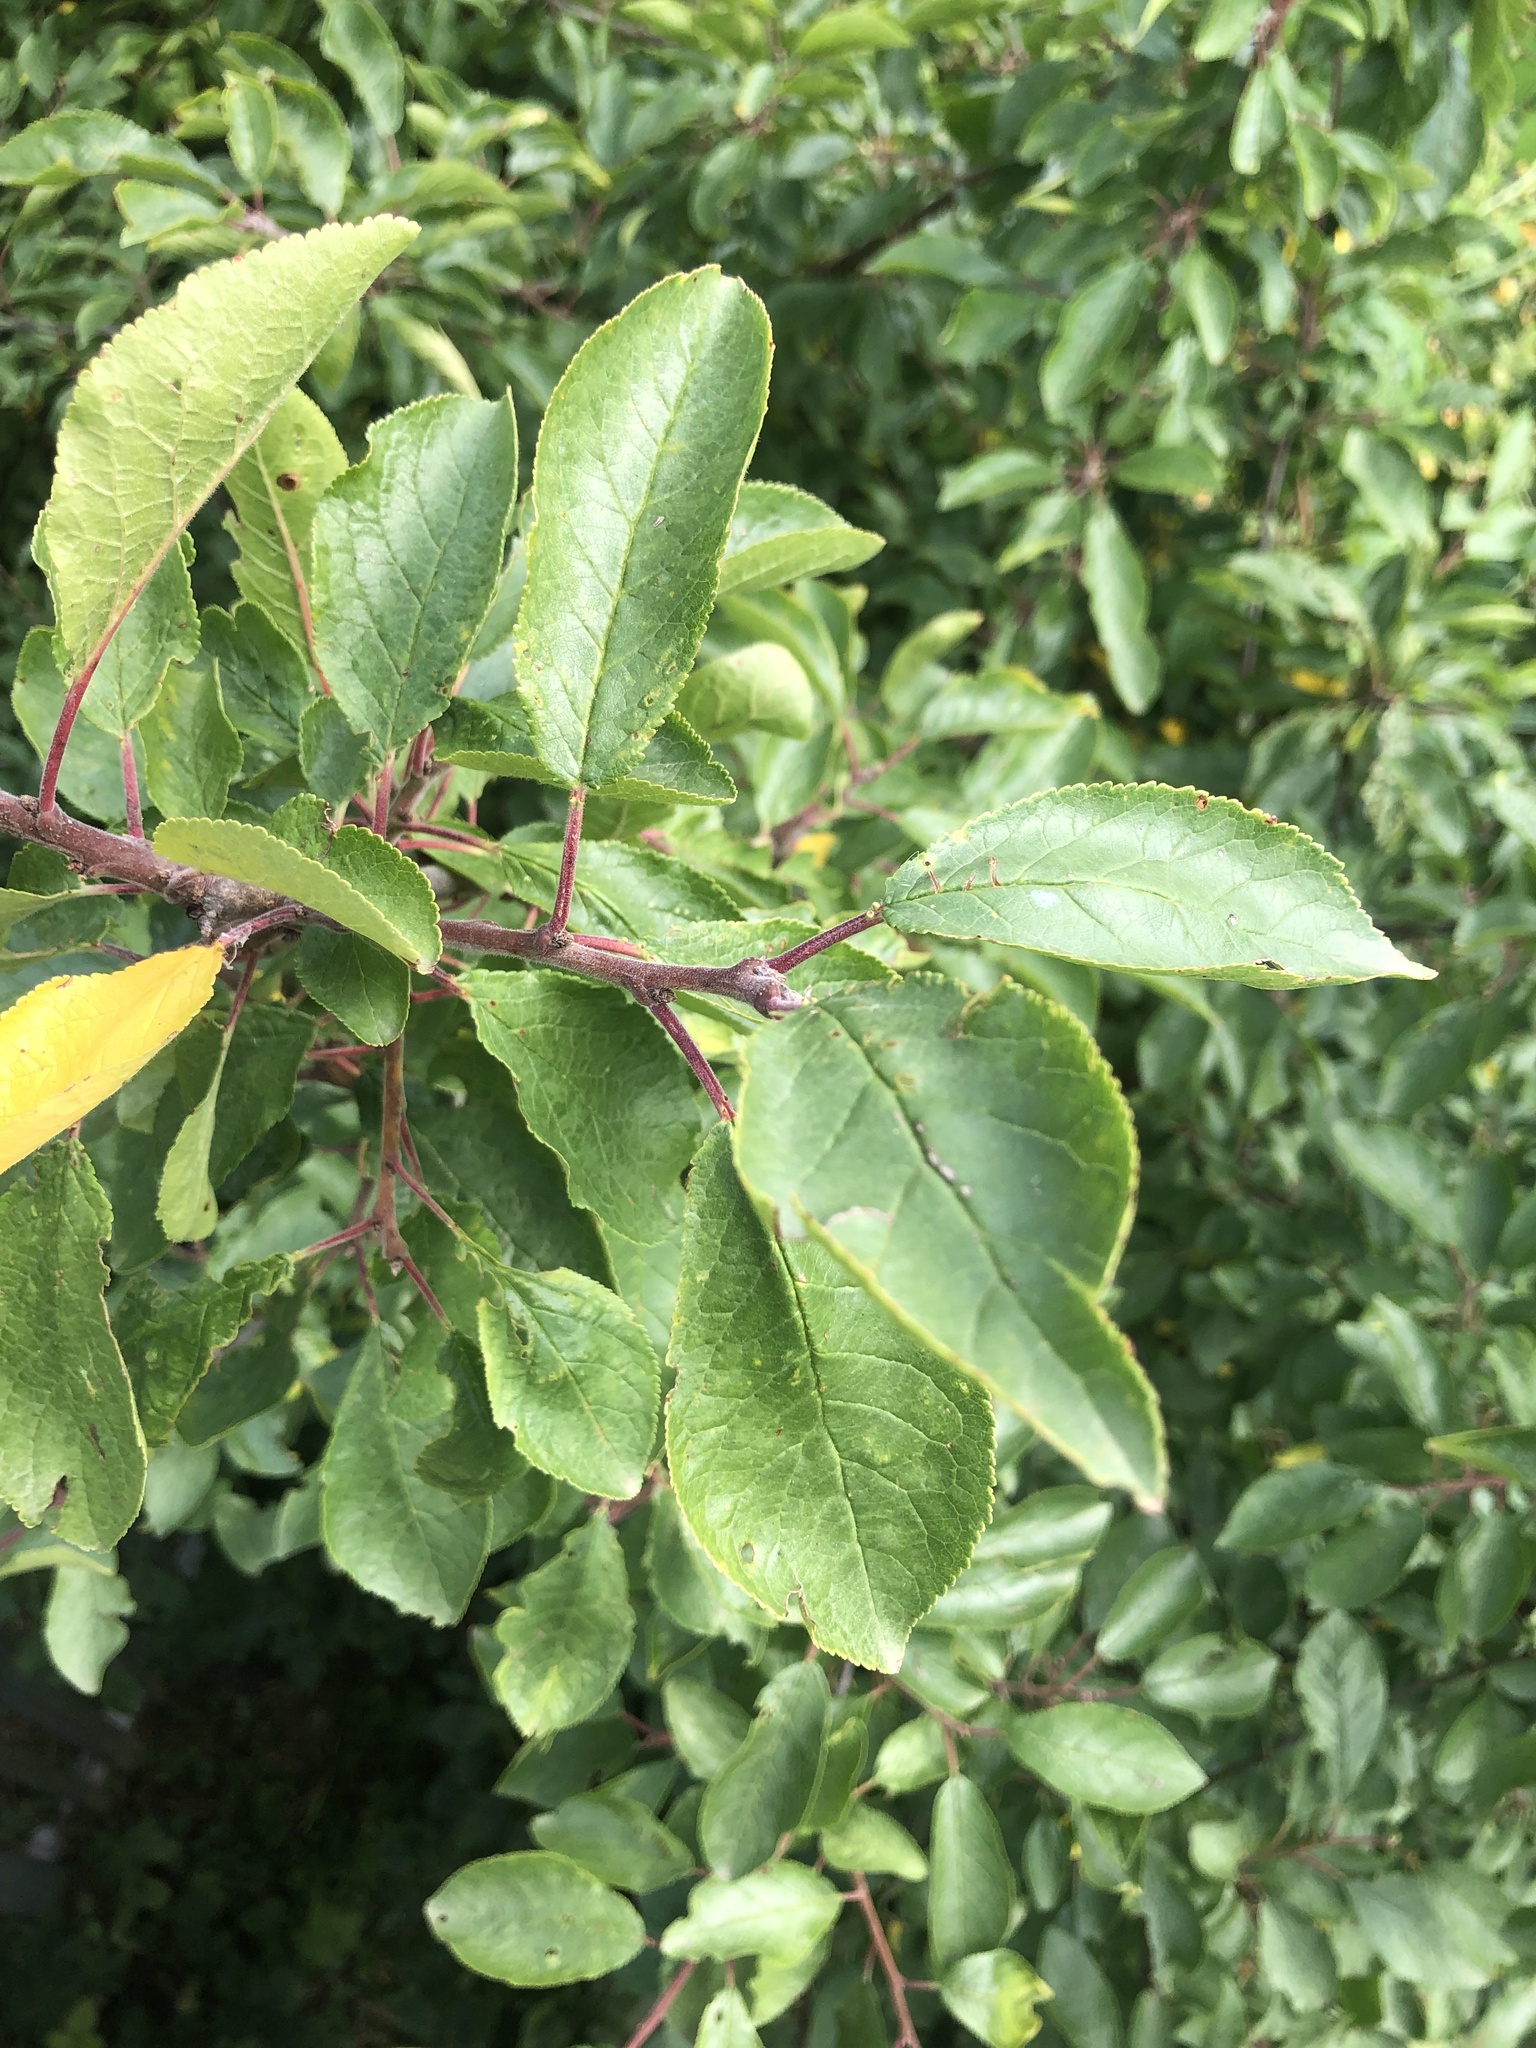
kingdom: Plantae
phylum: Tracheophyta
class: Magnoliopsida
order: Rosales
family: Rosaceae
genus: Prunus
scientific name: Prunus domestica
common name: Wild plum
